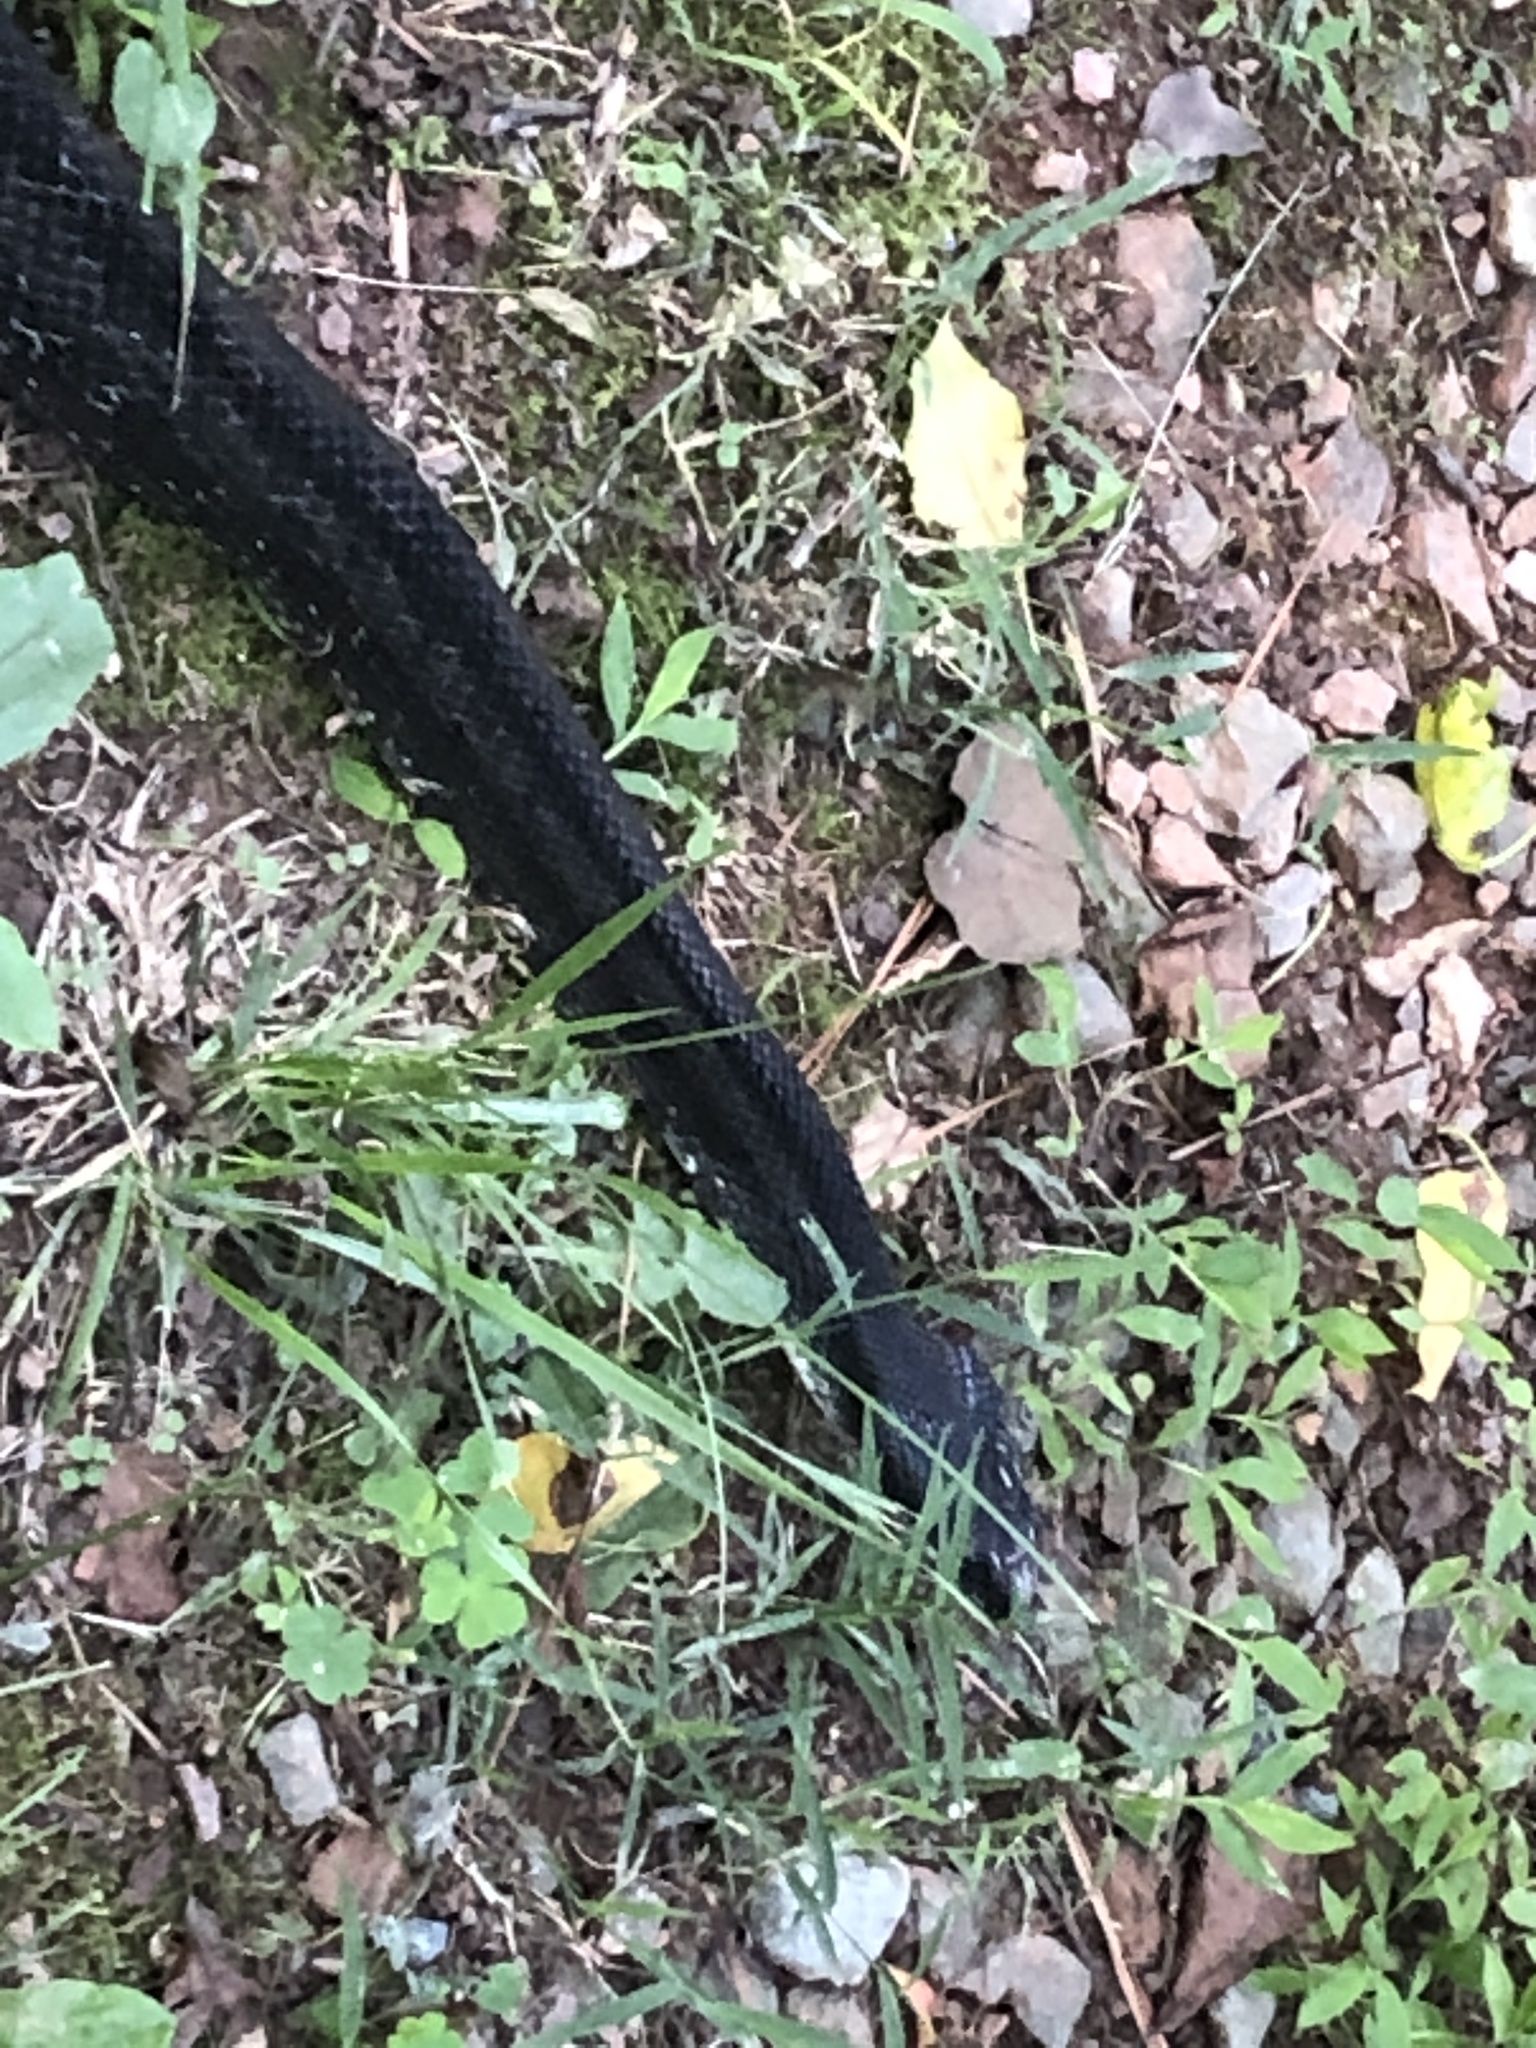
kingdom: Animalia
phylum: Chordata
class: Squamata
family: Colubridae
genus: Pantherophis
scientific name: Pantherophis alleghaniensis
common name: Eastern rat snake
